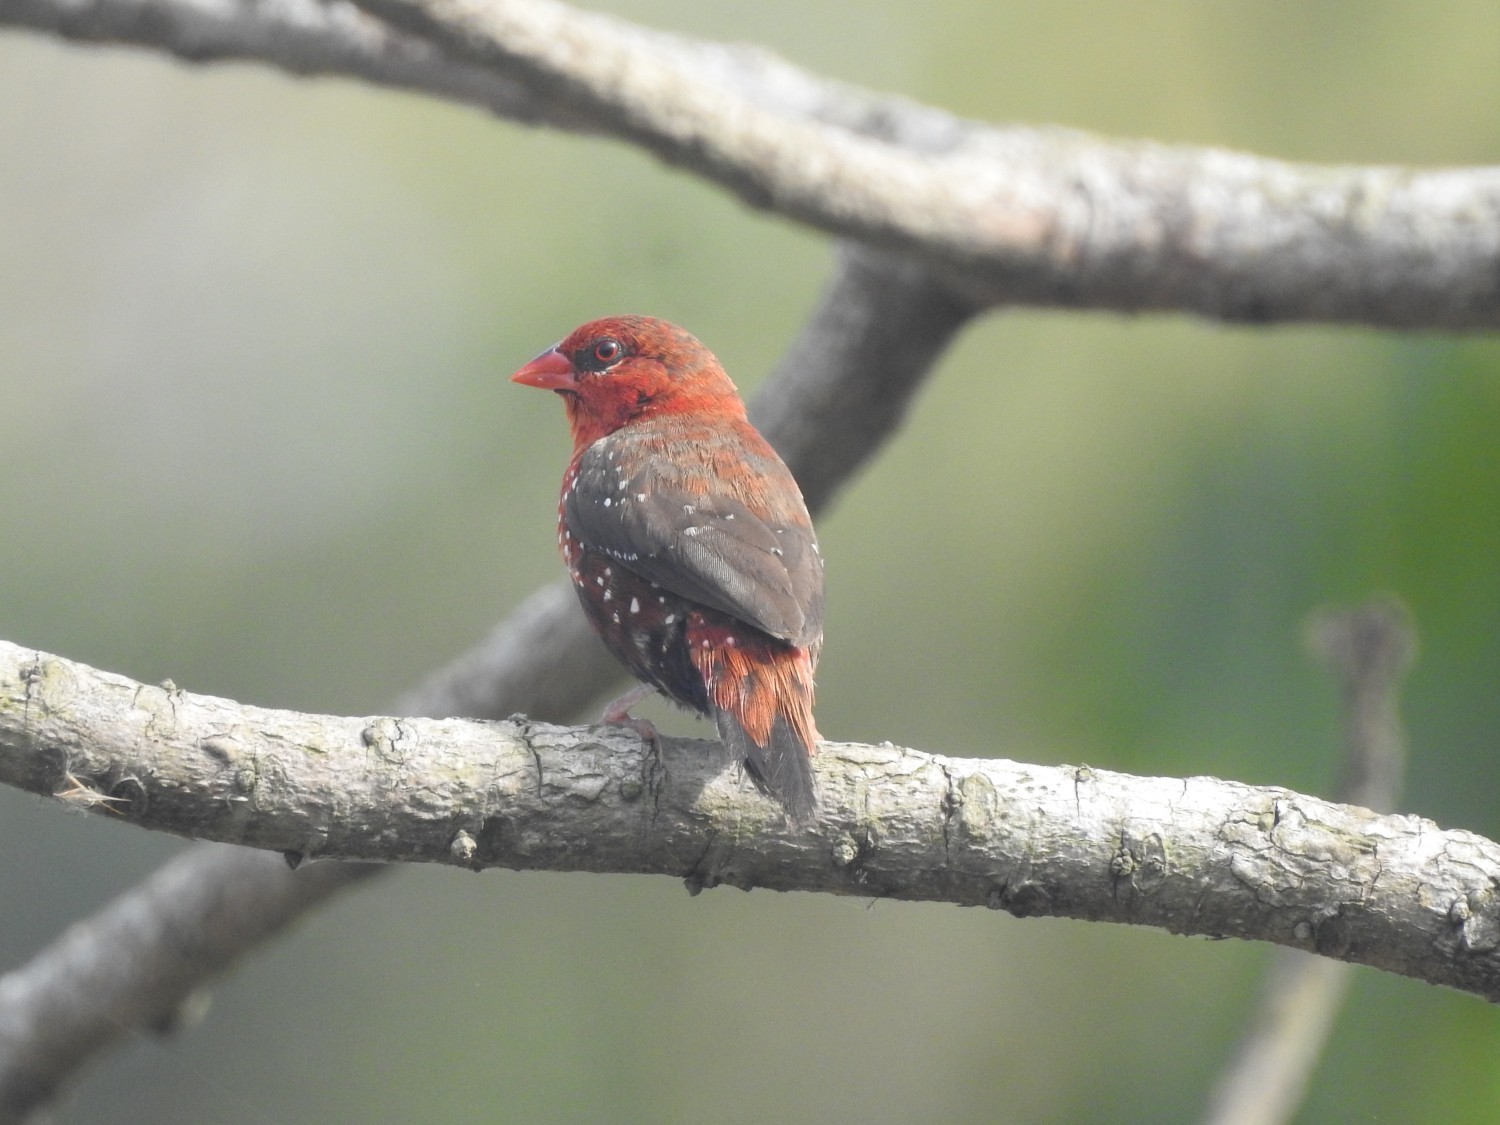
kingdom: Animalia
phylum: Chordata
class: Aves
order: Passeriformes
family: Estrildidae
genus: Amandava
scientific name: Amandava amandava
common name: Red avadavat
